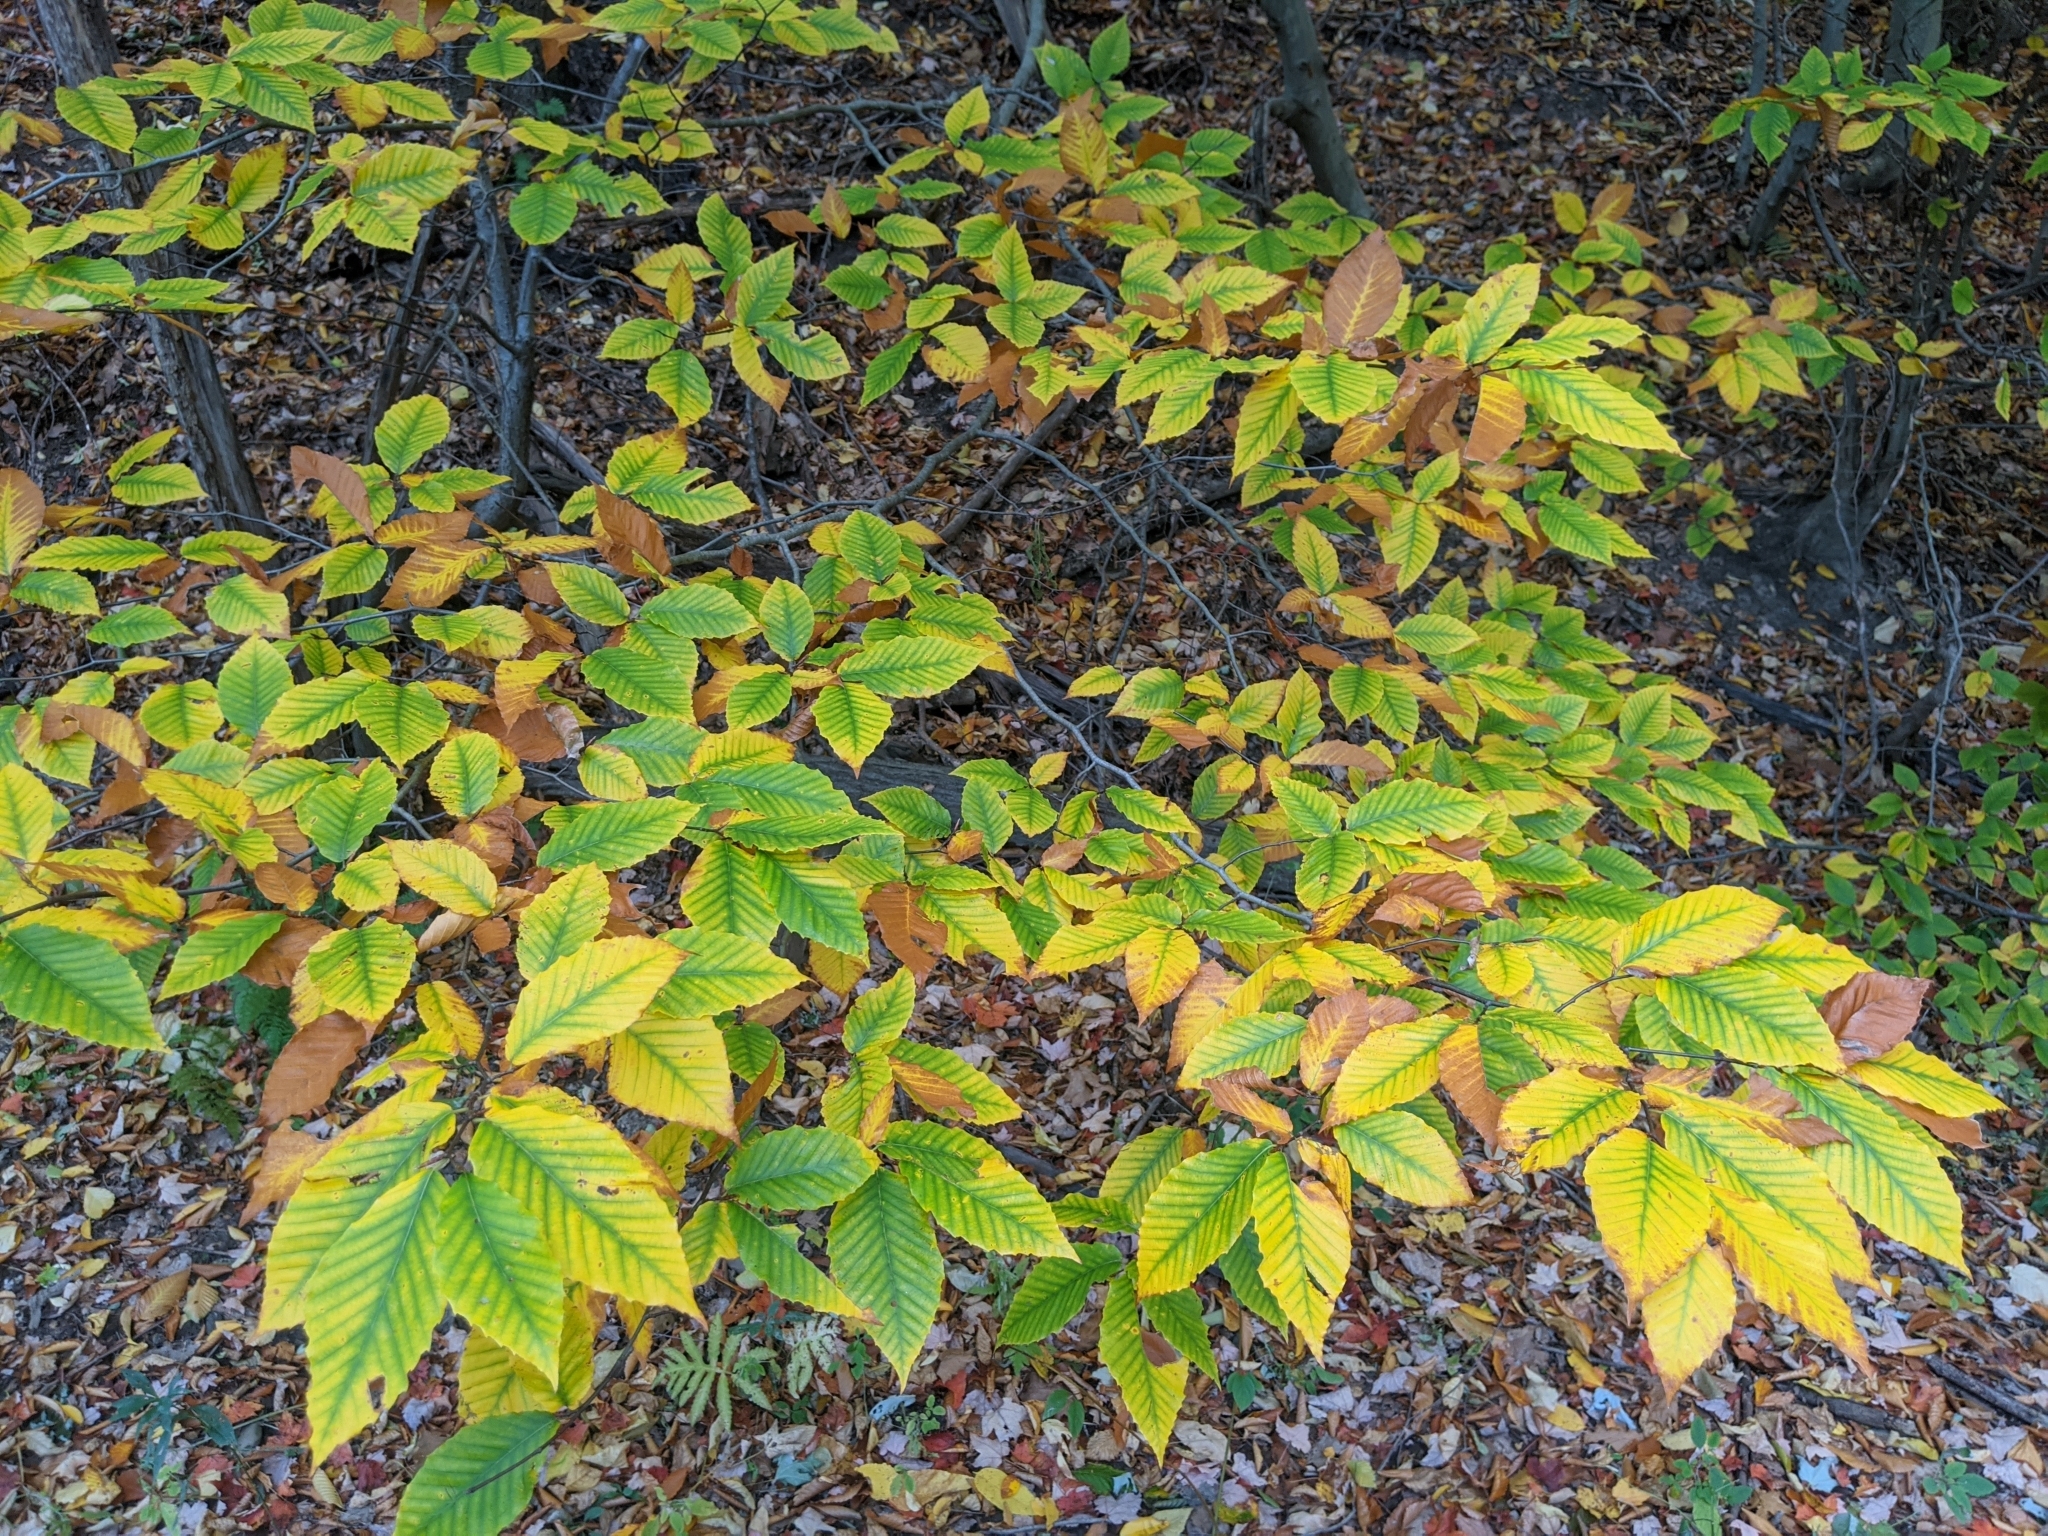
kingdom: Plantae
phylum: Tracheophyta
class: Magnoliopsida
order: Fagales
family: Fagaceae
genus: Fagus
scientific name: Fagus grandifolia
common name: American beech
